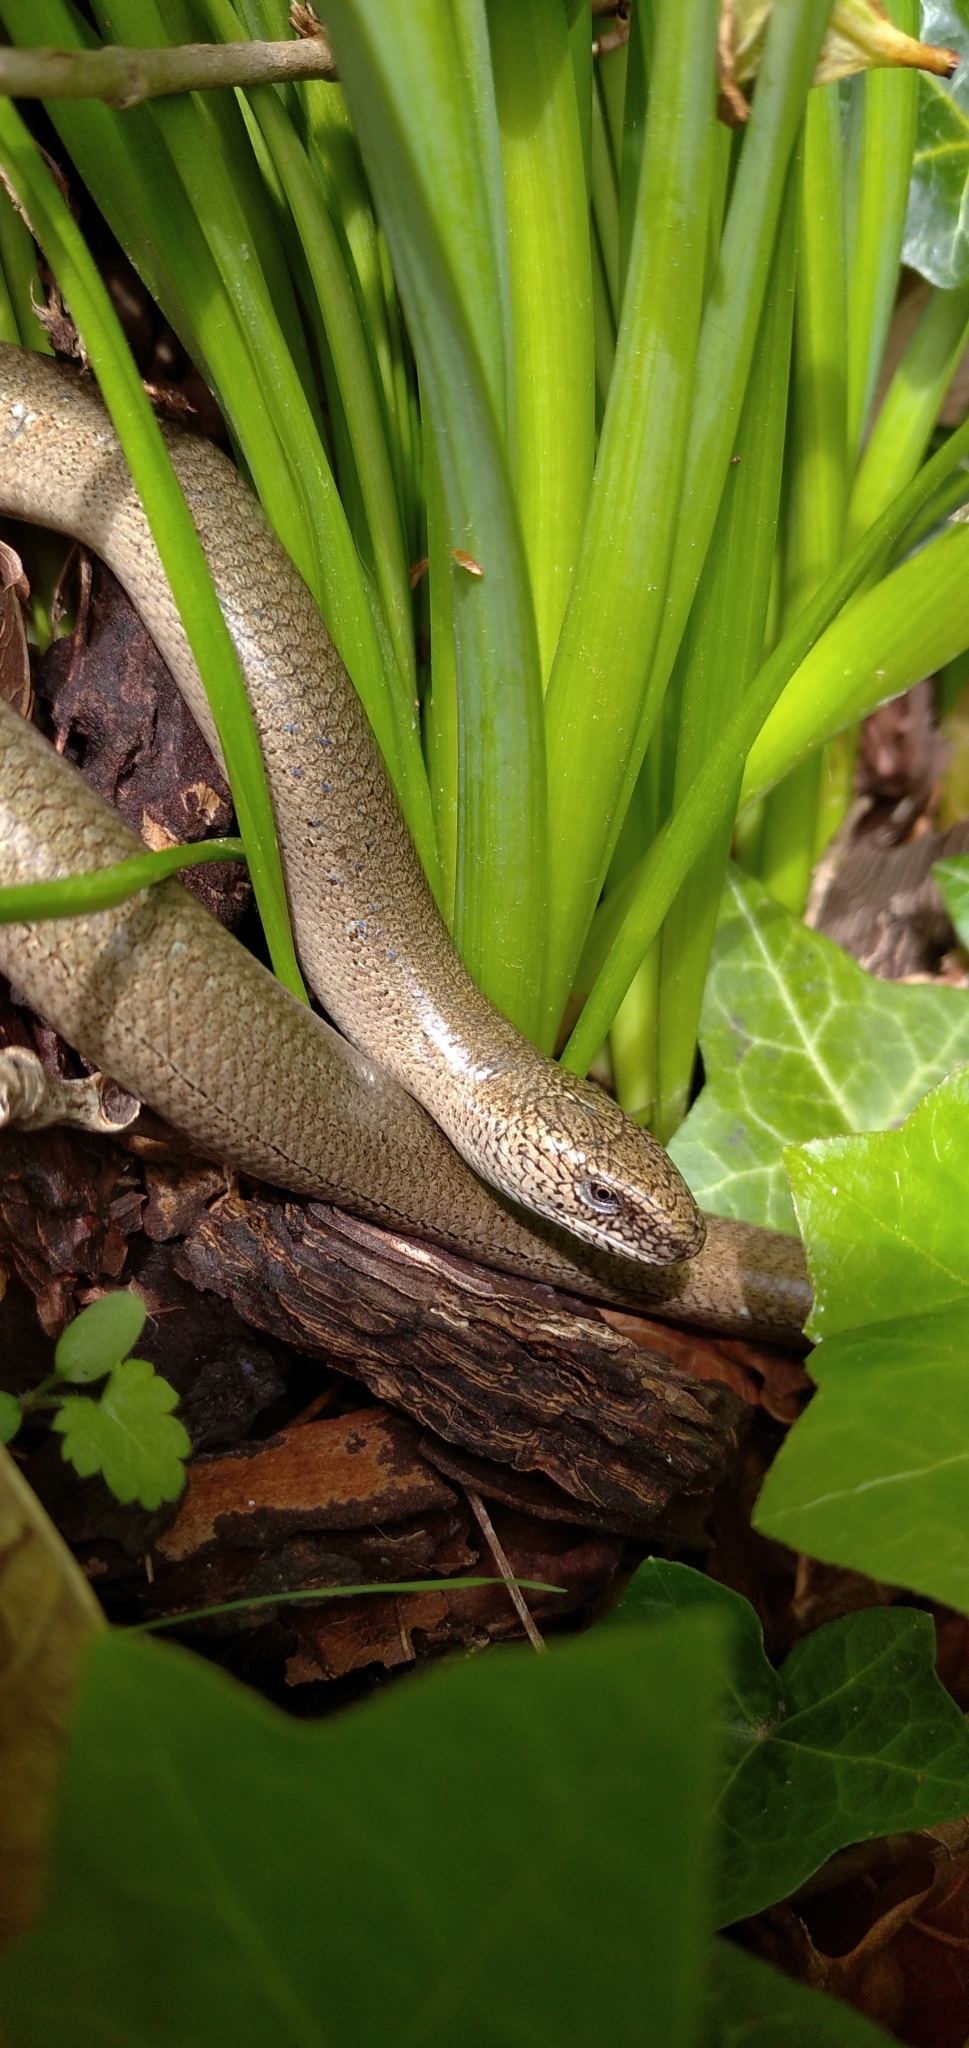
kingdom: Animalia
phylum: Chordata
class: Squamata
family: Anguidae
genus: Anguis
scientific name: Anguis fragilis
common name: Slow worm
